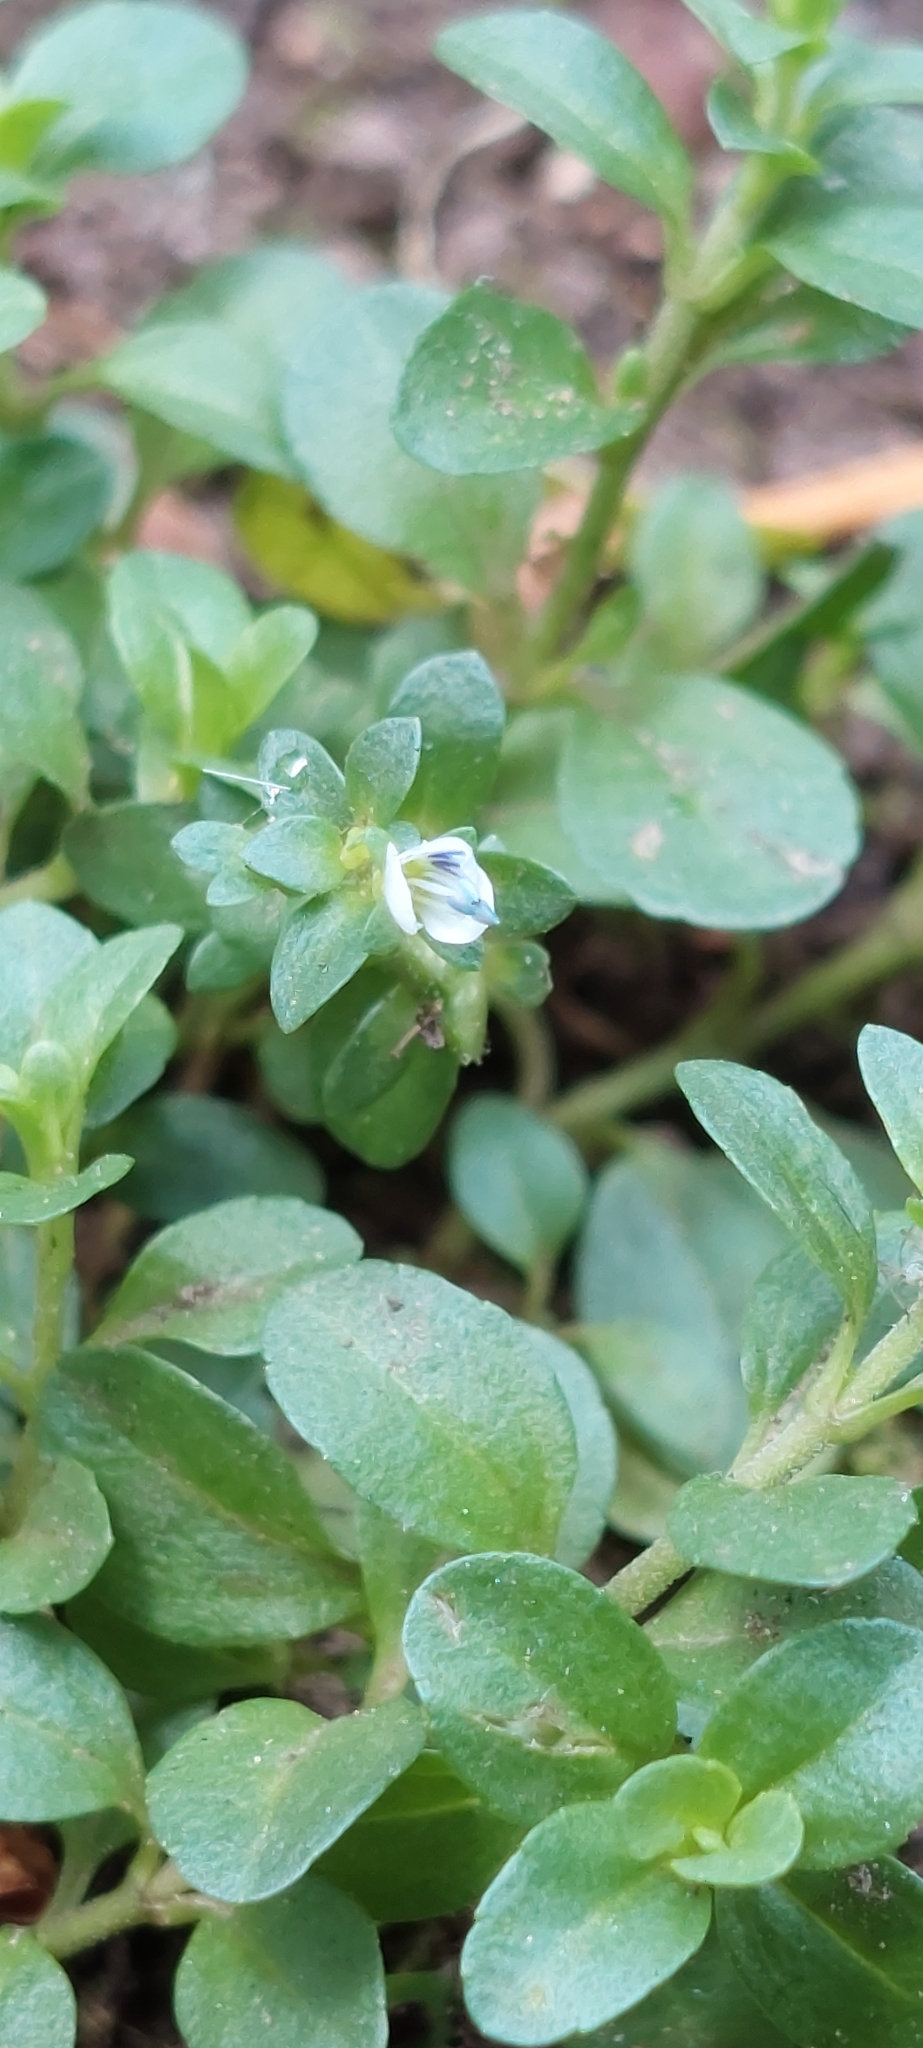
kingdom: Plantae
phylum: Tracheophyta
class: Magnoliopsida
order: Lamiales
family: Plantaginaceae
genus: Veronica
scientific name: Veronica serpyllifolia
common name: Thyme-leaved speedwell
